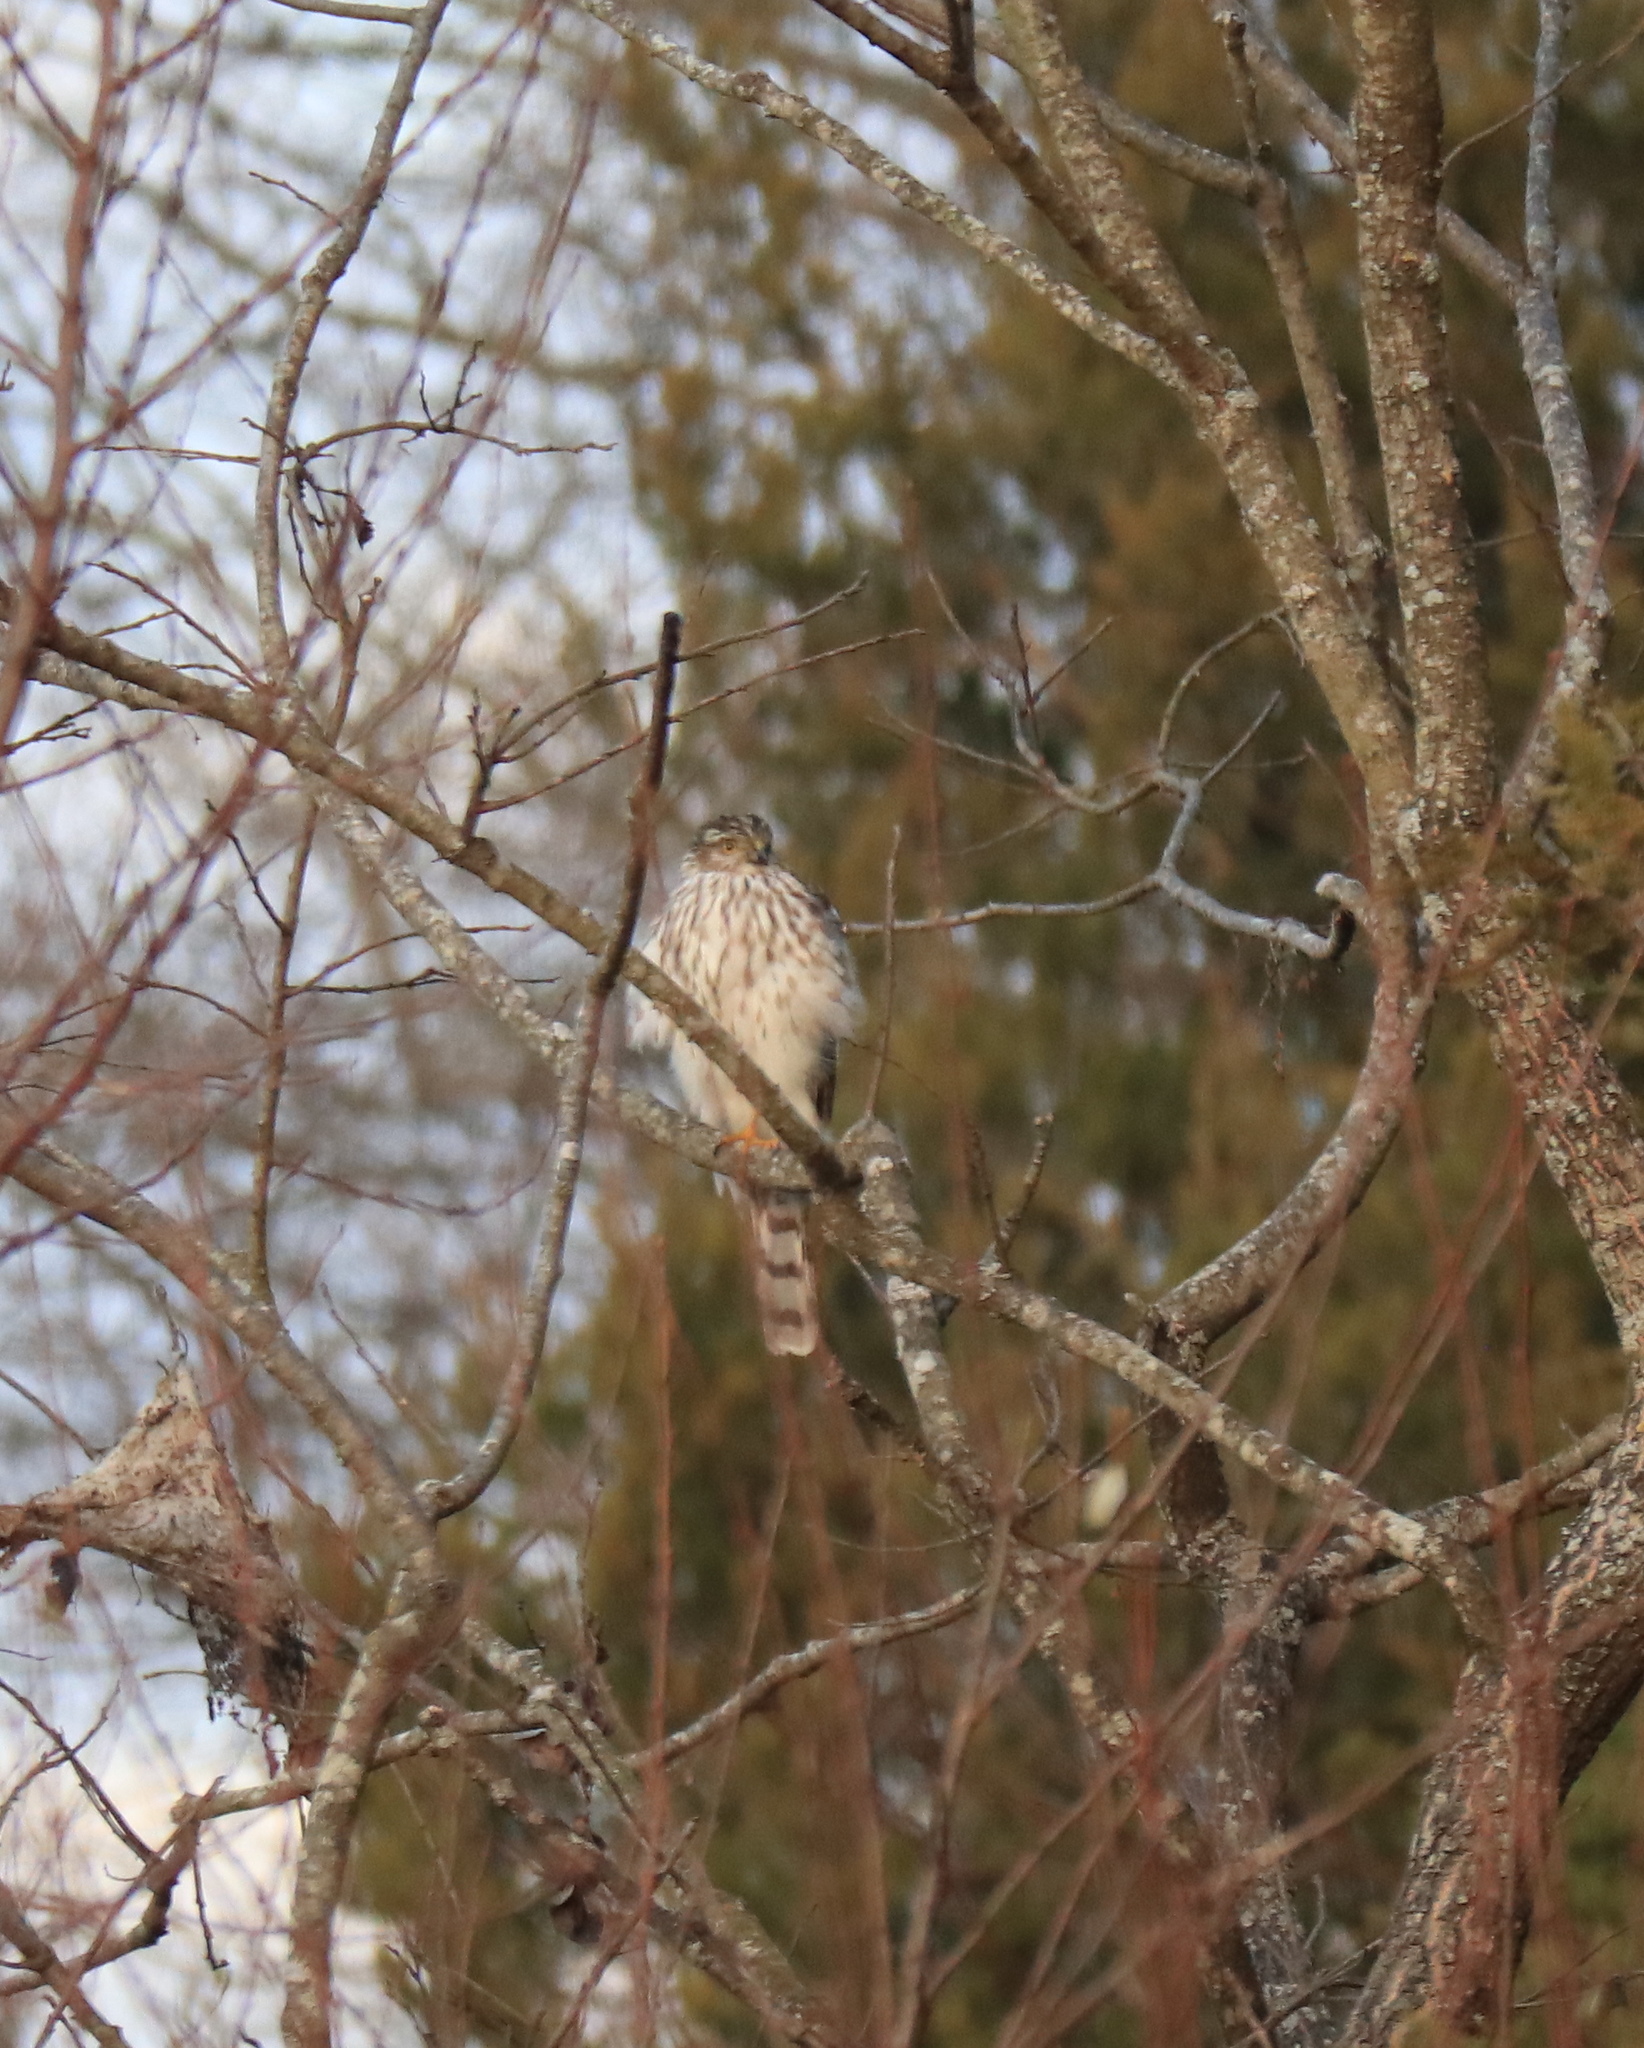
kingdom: Animalia
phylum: Chordata
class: Aves
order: Accipitriformes
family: Accipitridae
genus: Accipiter
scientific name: Accipiter striatus
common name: Sharp-shinned hawk
